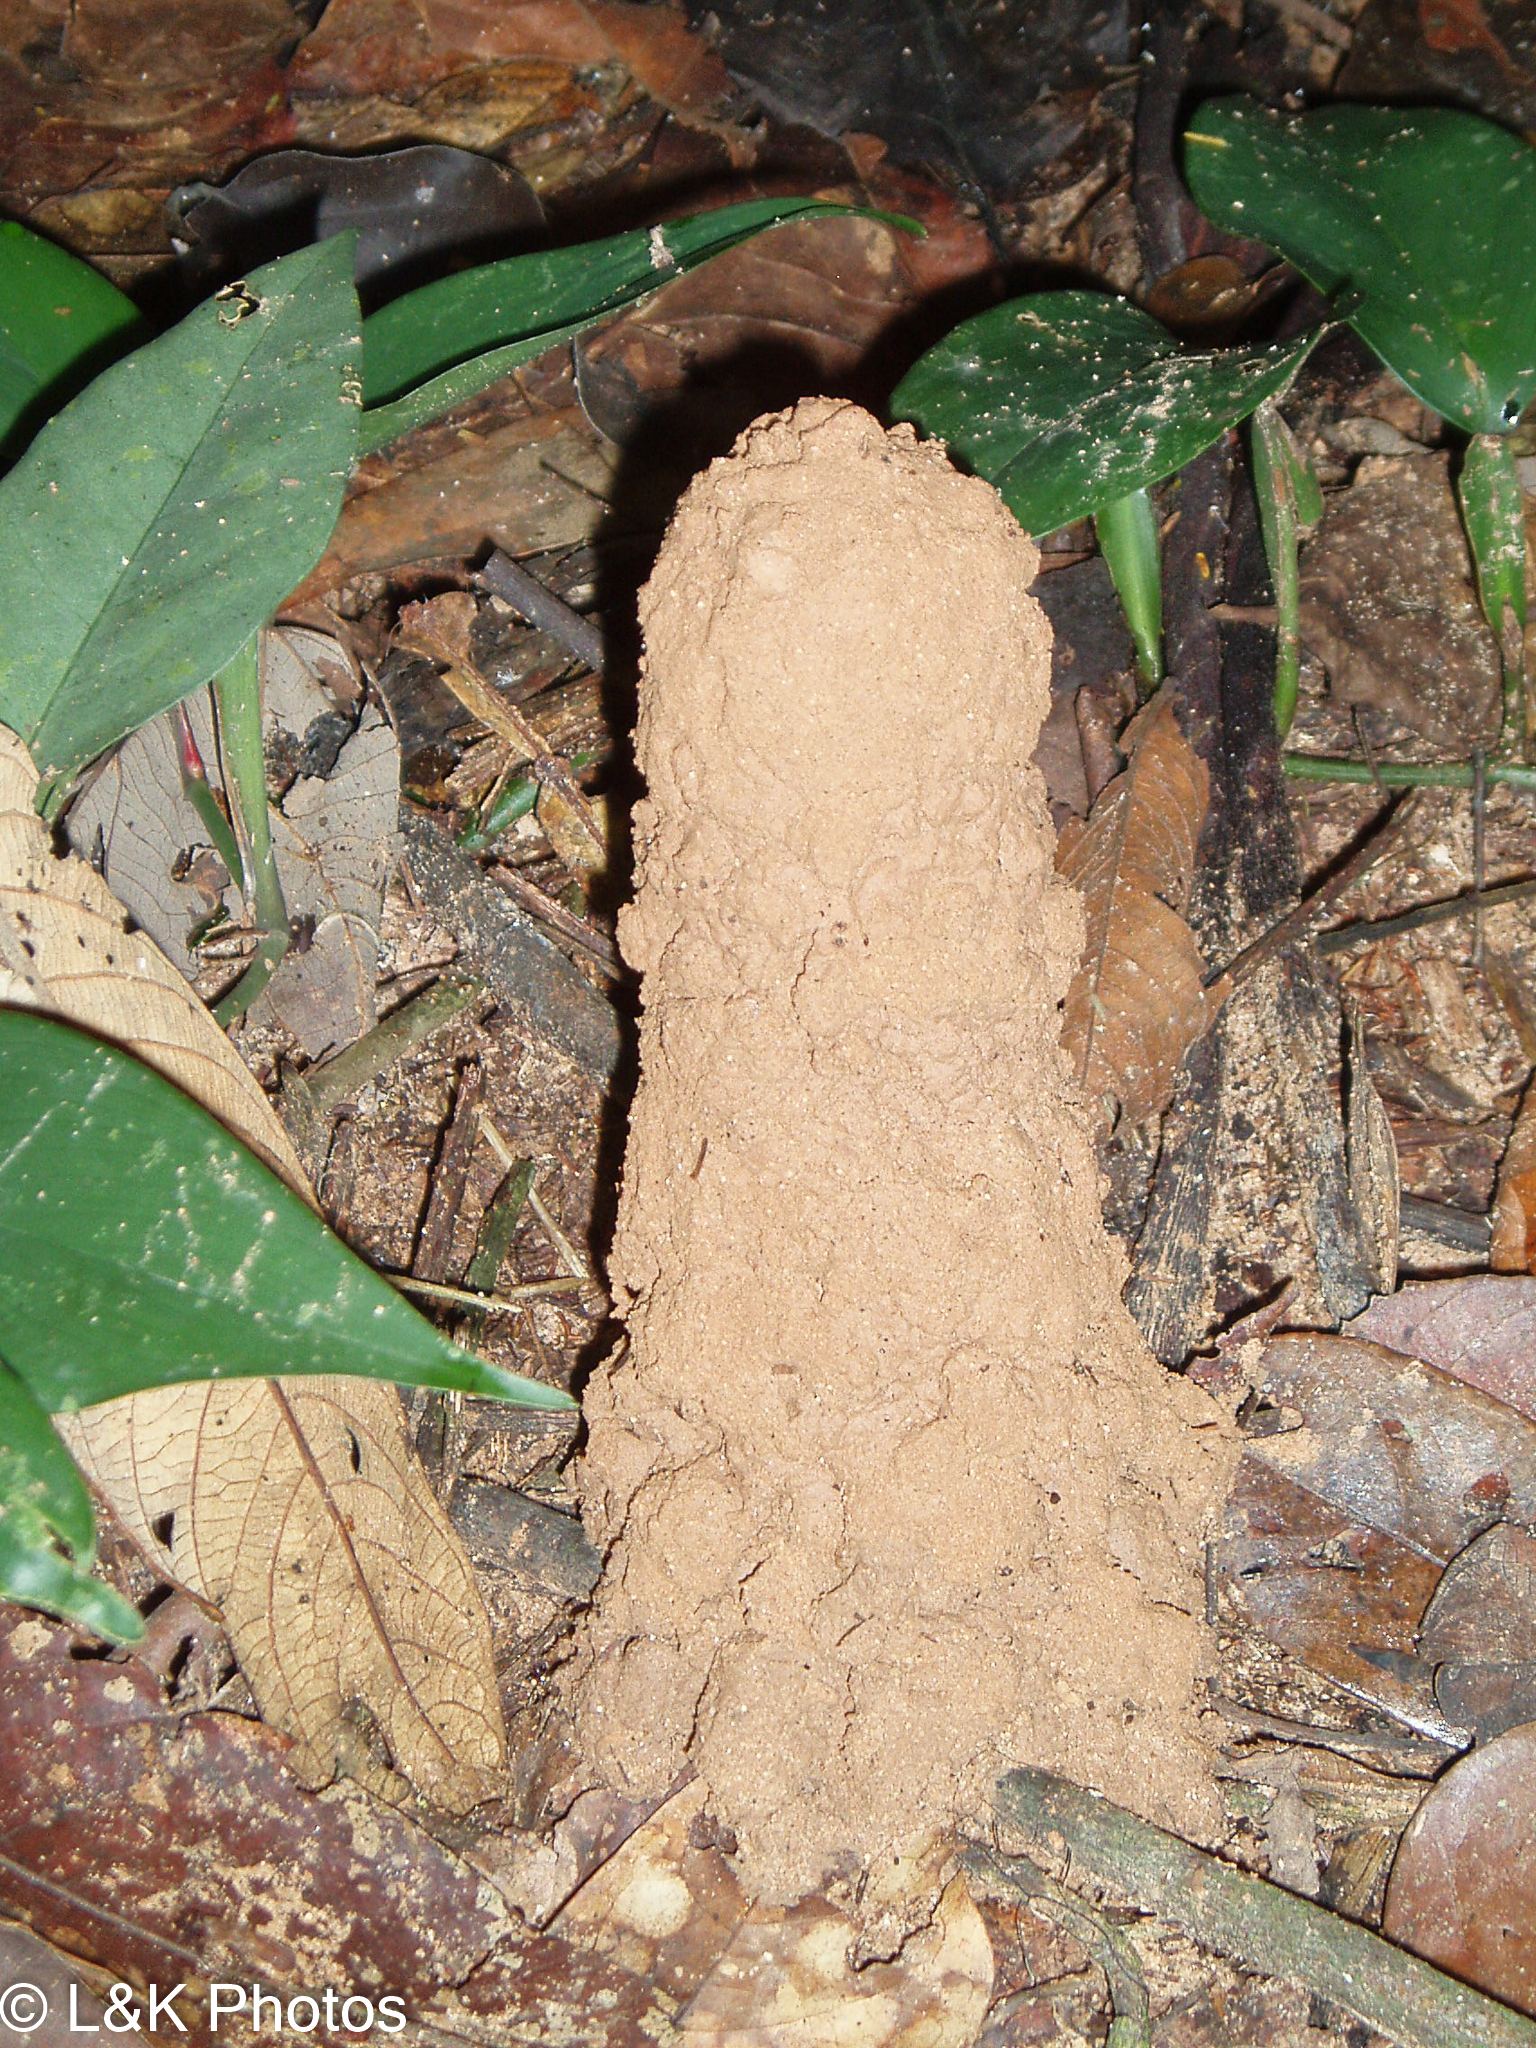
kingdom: Animalia
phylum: Arthropoda
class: Insecta
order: Hemiptera
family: Cicadidae
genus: Guyalna
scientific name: Guyalna chlorogena
